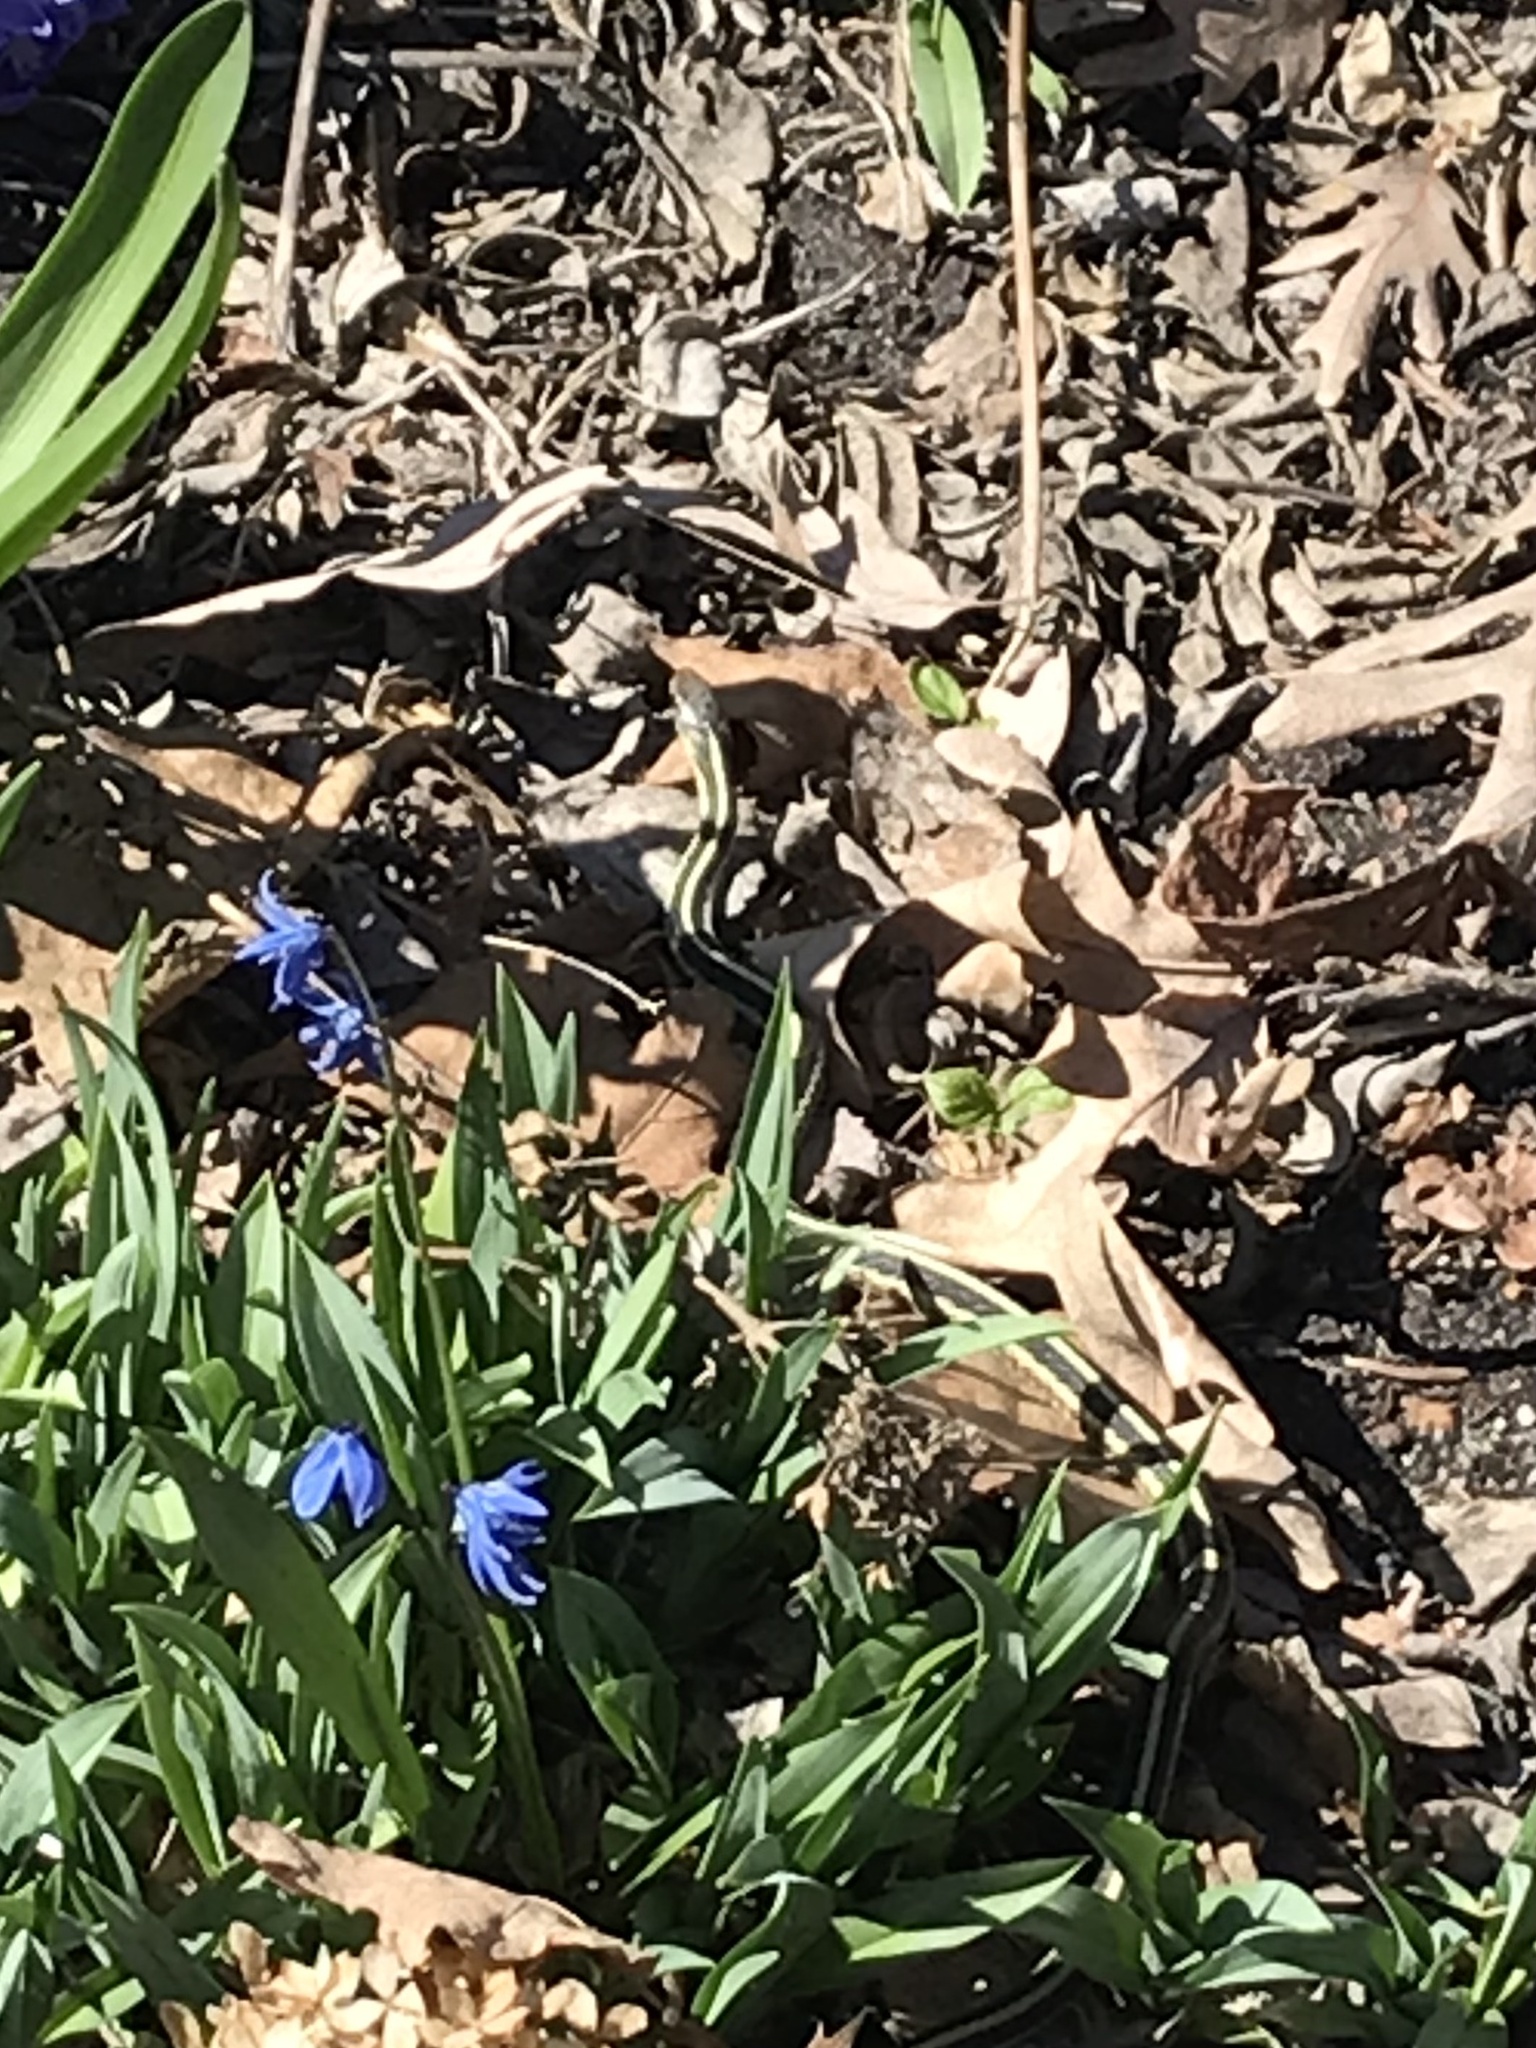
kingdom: Animalia
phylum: Chordata
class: Squamata
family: Colubridae
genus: Thamnophis
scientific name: Thamnophis sirtalis
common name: Common garter snake
